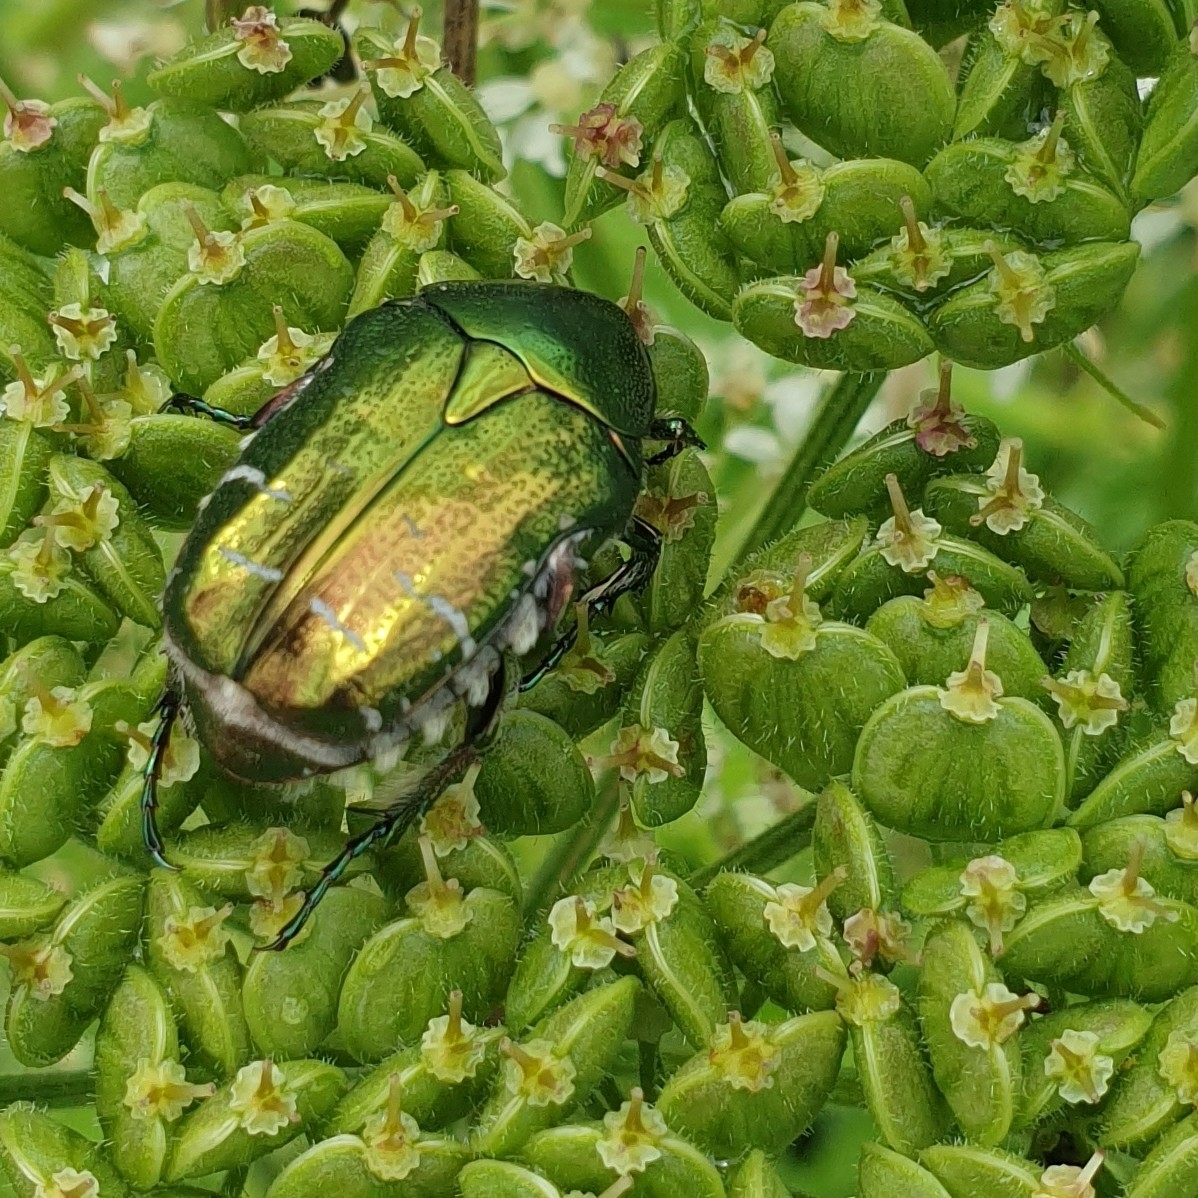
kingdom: Animalia
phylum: Arthropoda
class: Insecta
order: Coleoptera
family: Scarabaeidae
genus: Cetonia
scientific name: Cetonia aurata
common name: Rose chafer
